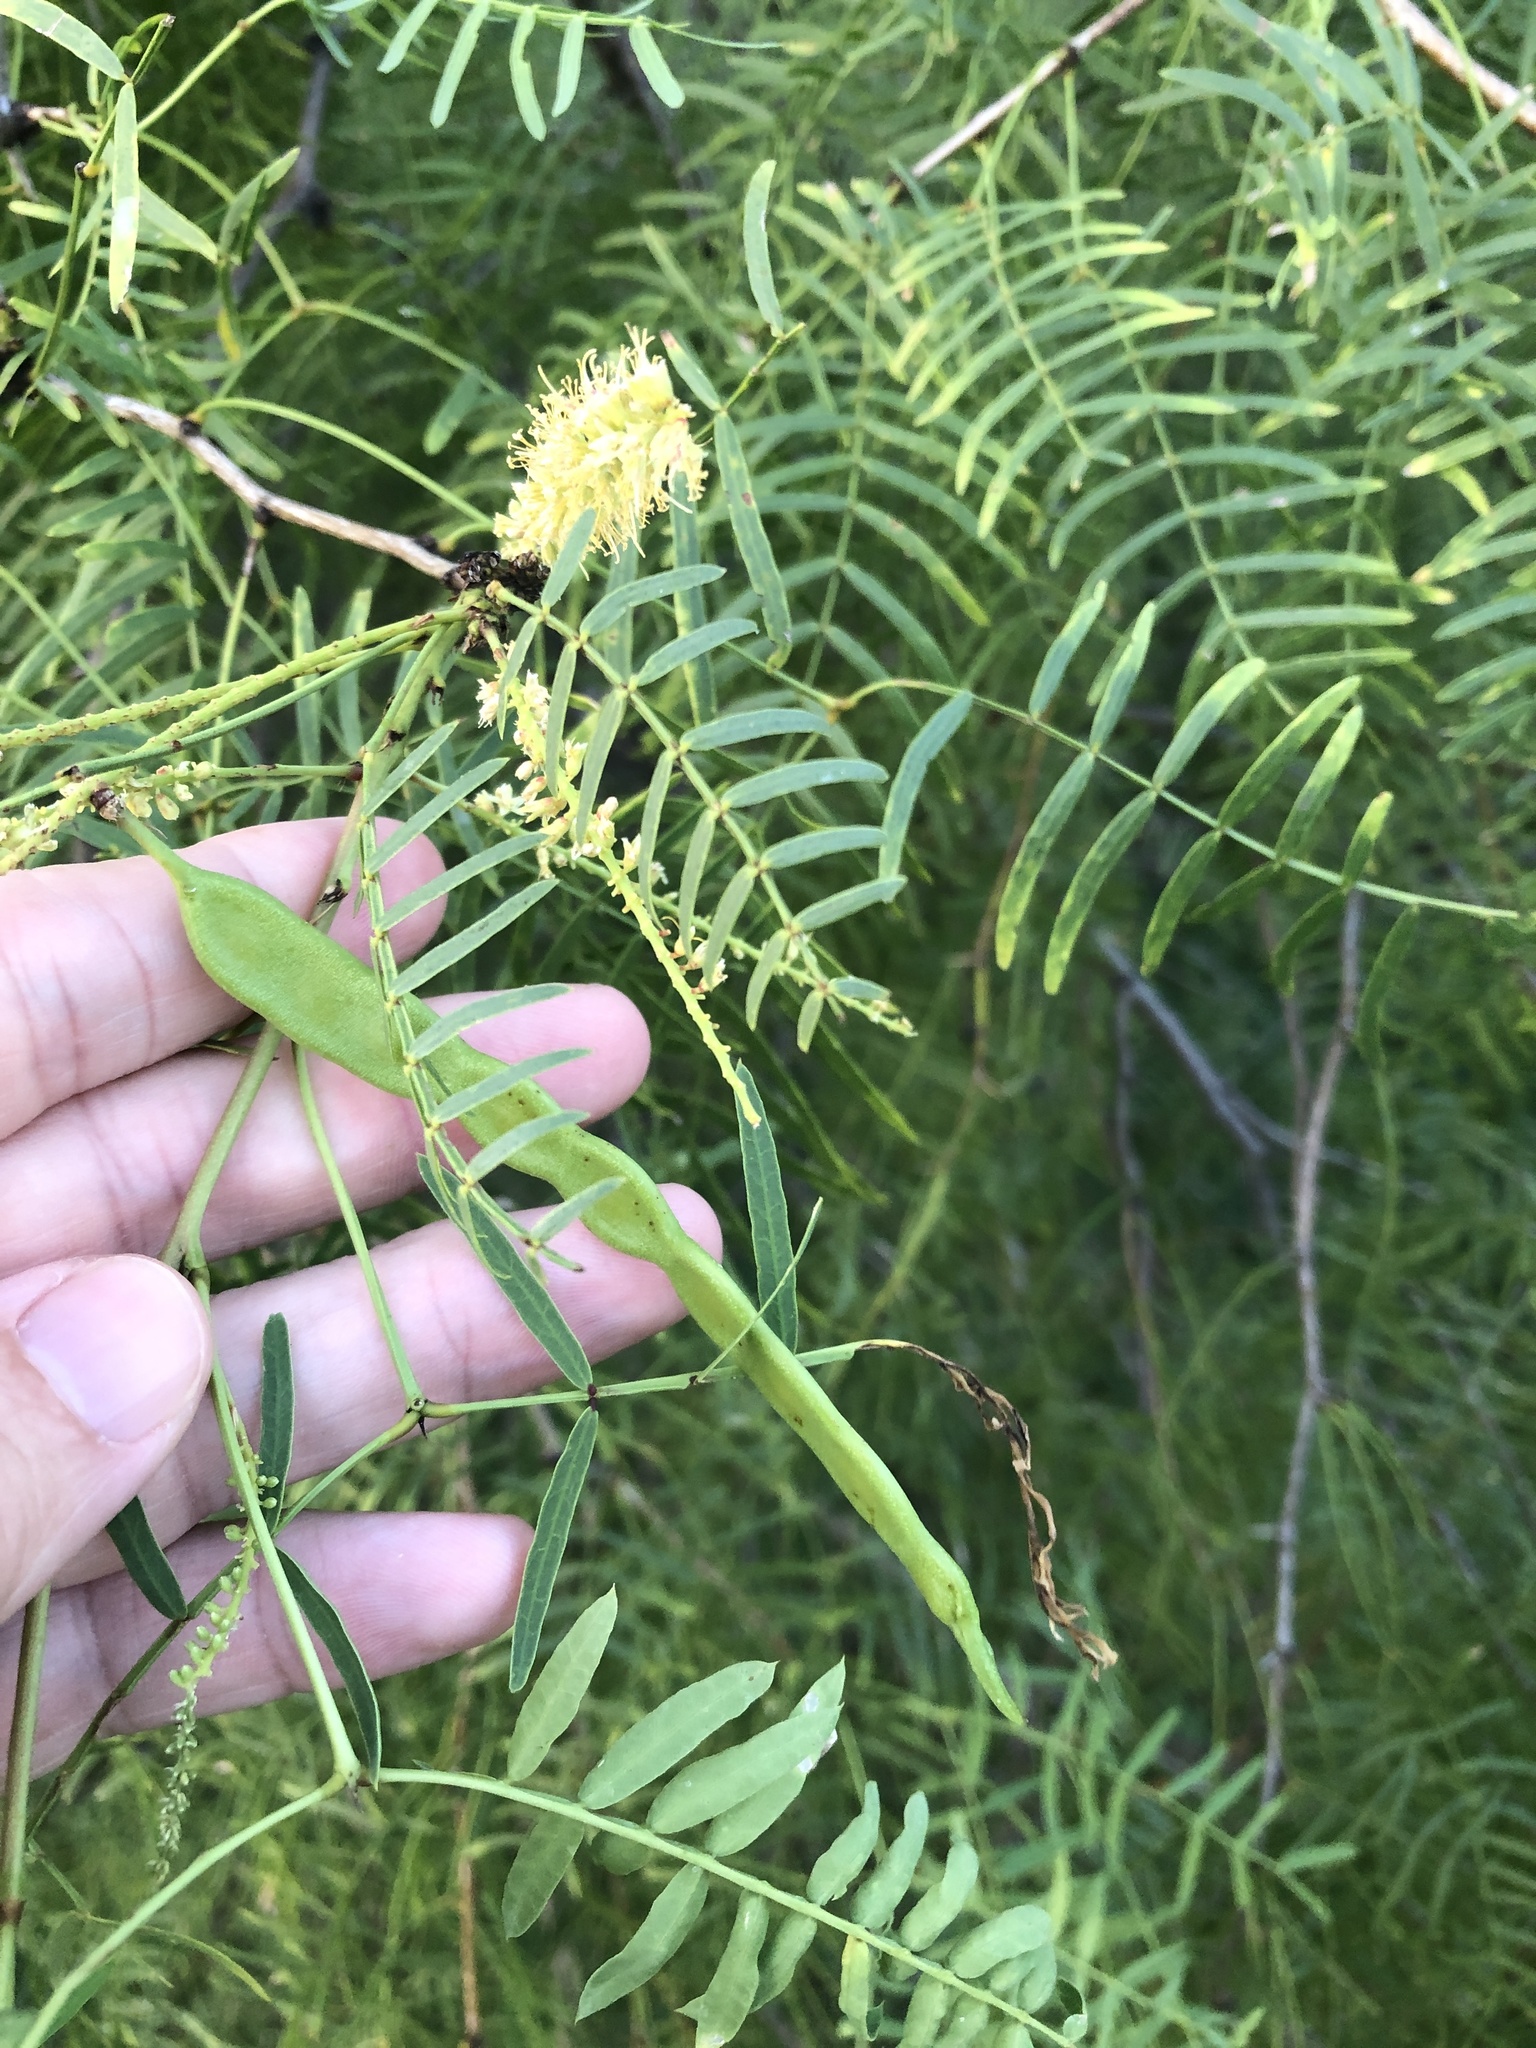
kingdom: Plantae
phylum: Tracheophyta
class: Magnoliopsida
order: Fabales
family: Fabaceae
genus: Prosopis
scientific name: Prosopis glandulosa
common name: Honey mesquite
